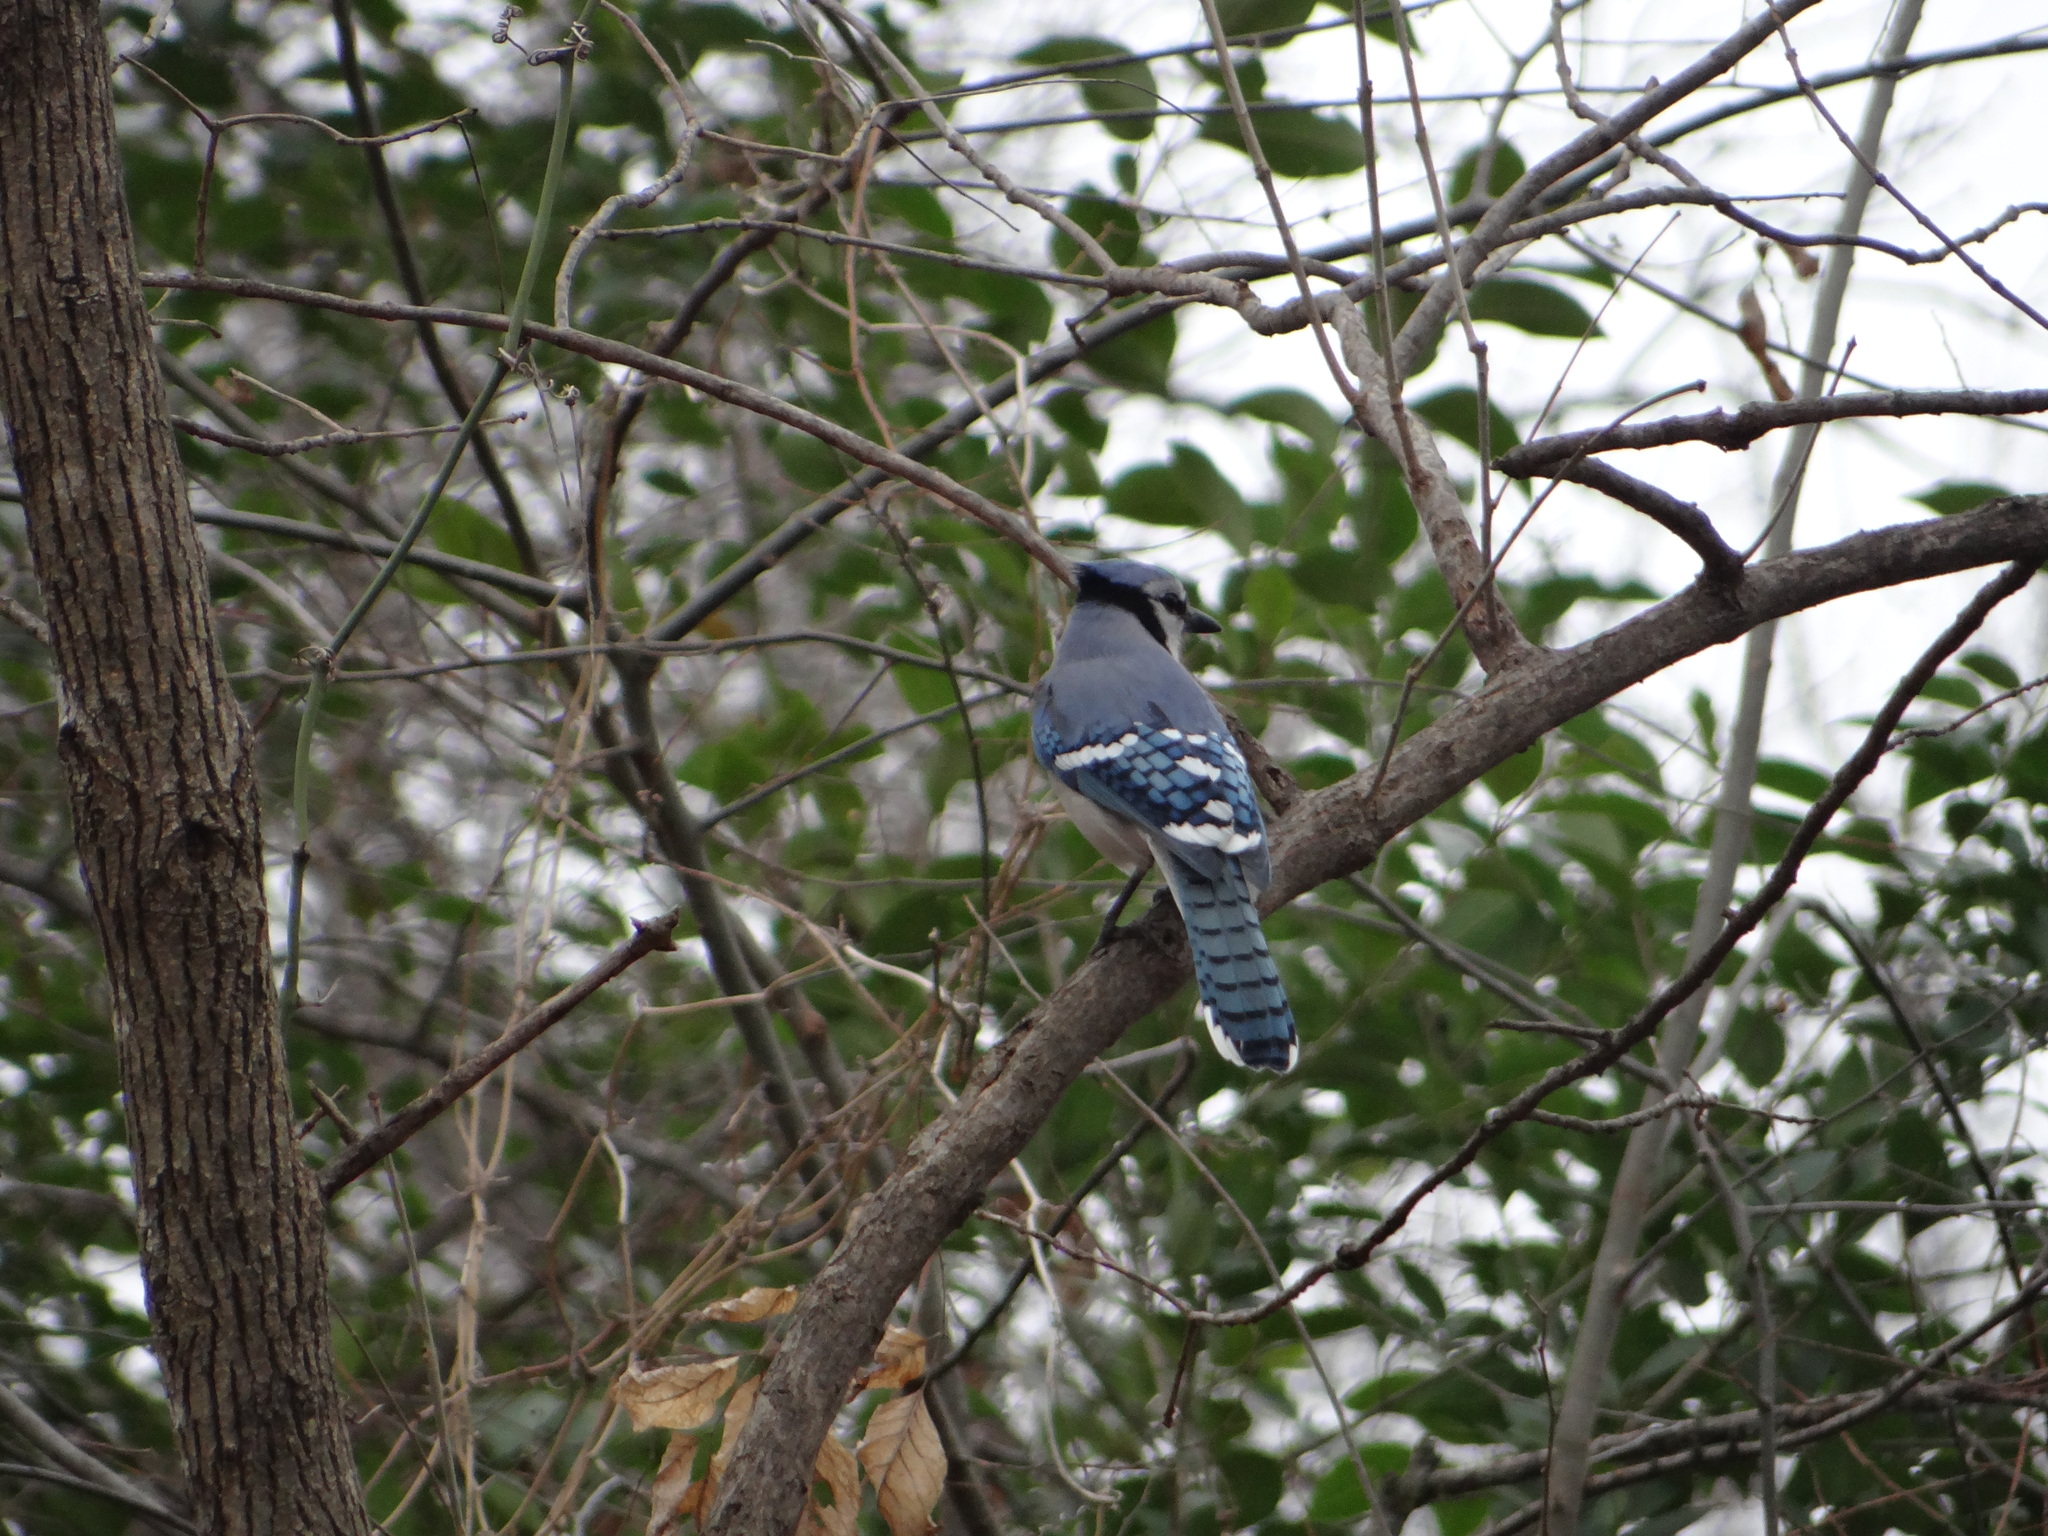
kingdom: Animalia
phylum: Chordata
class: Aves
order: Passeriformes
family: Corvidae
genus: Cyanocitta
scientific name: Cyanocitta cristata
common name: Blue jay
